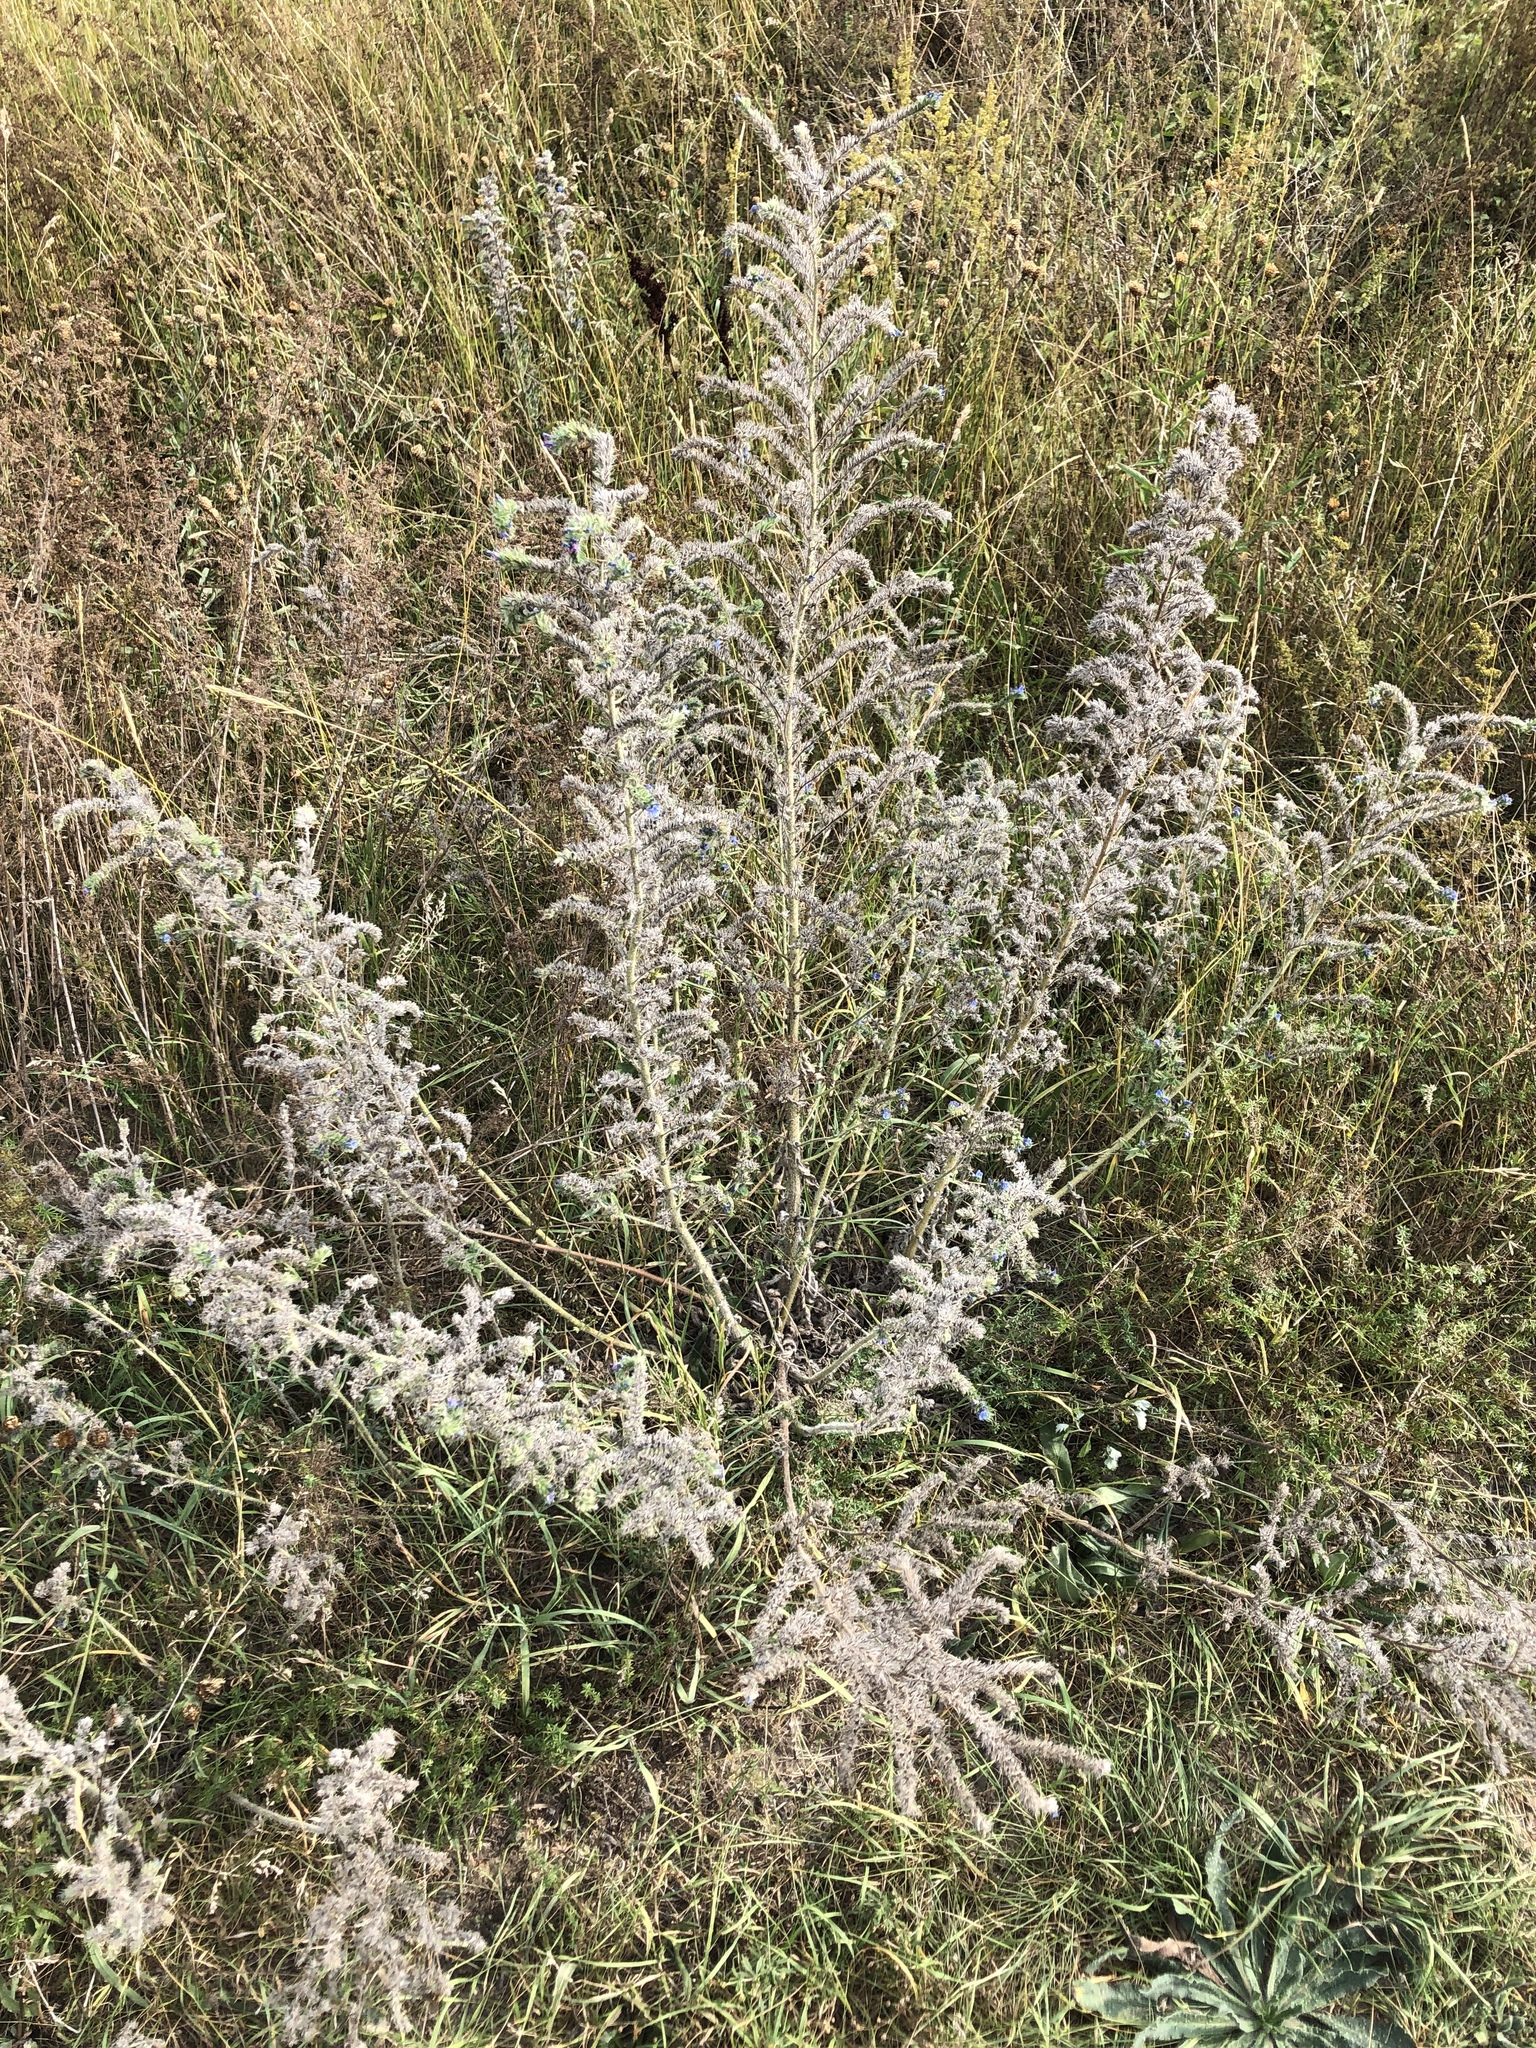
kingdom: Plantae
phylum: Tracheophyta
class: Magnoliopsida
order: Boraginales
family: Boraginaceae
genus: Echium
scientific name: Echium vulgare
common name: Common viper's bugloss
